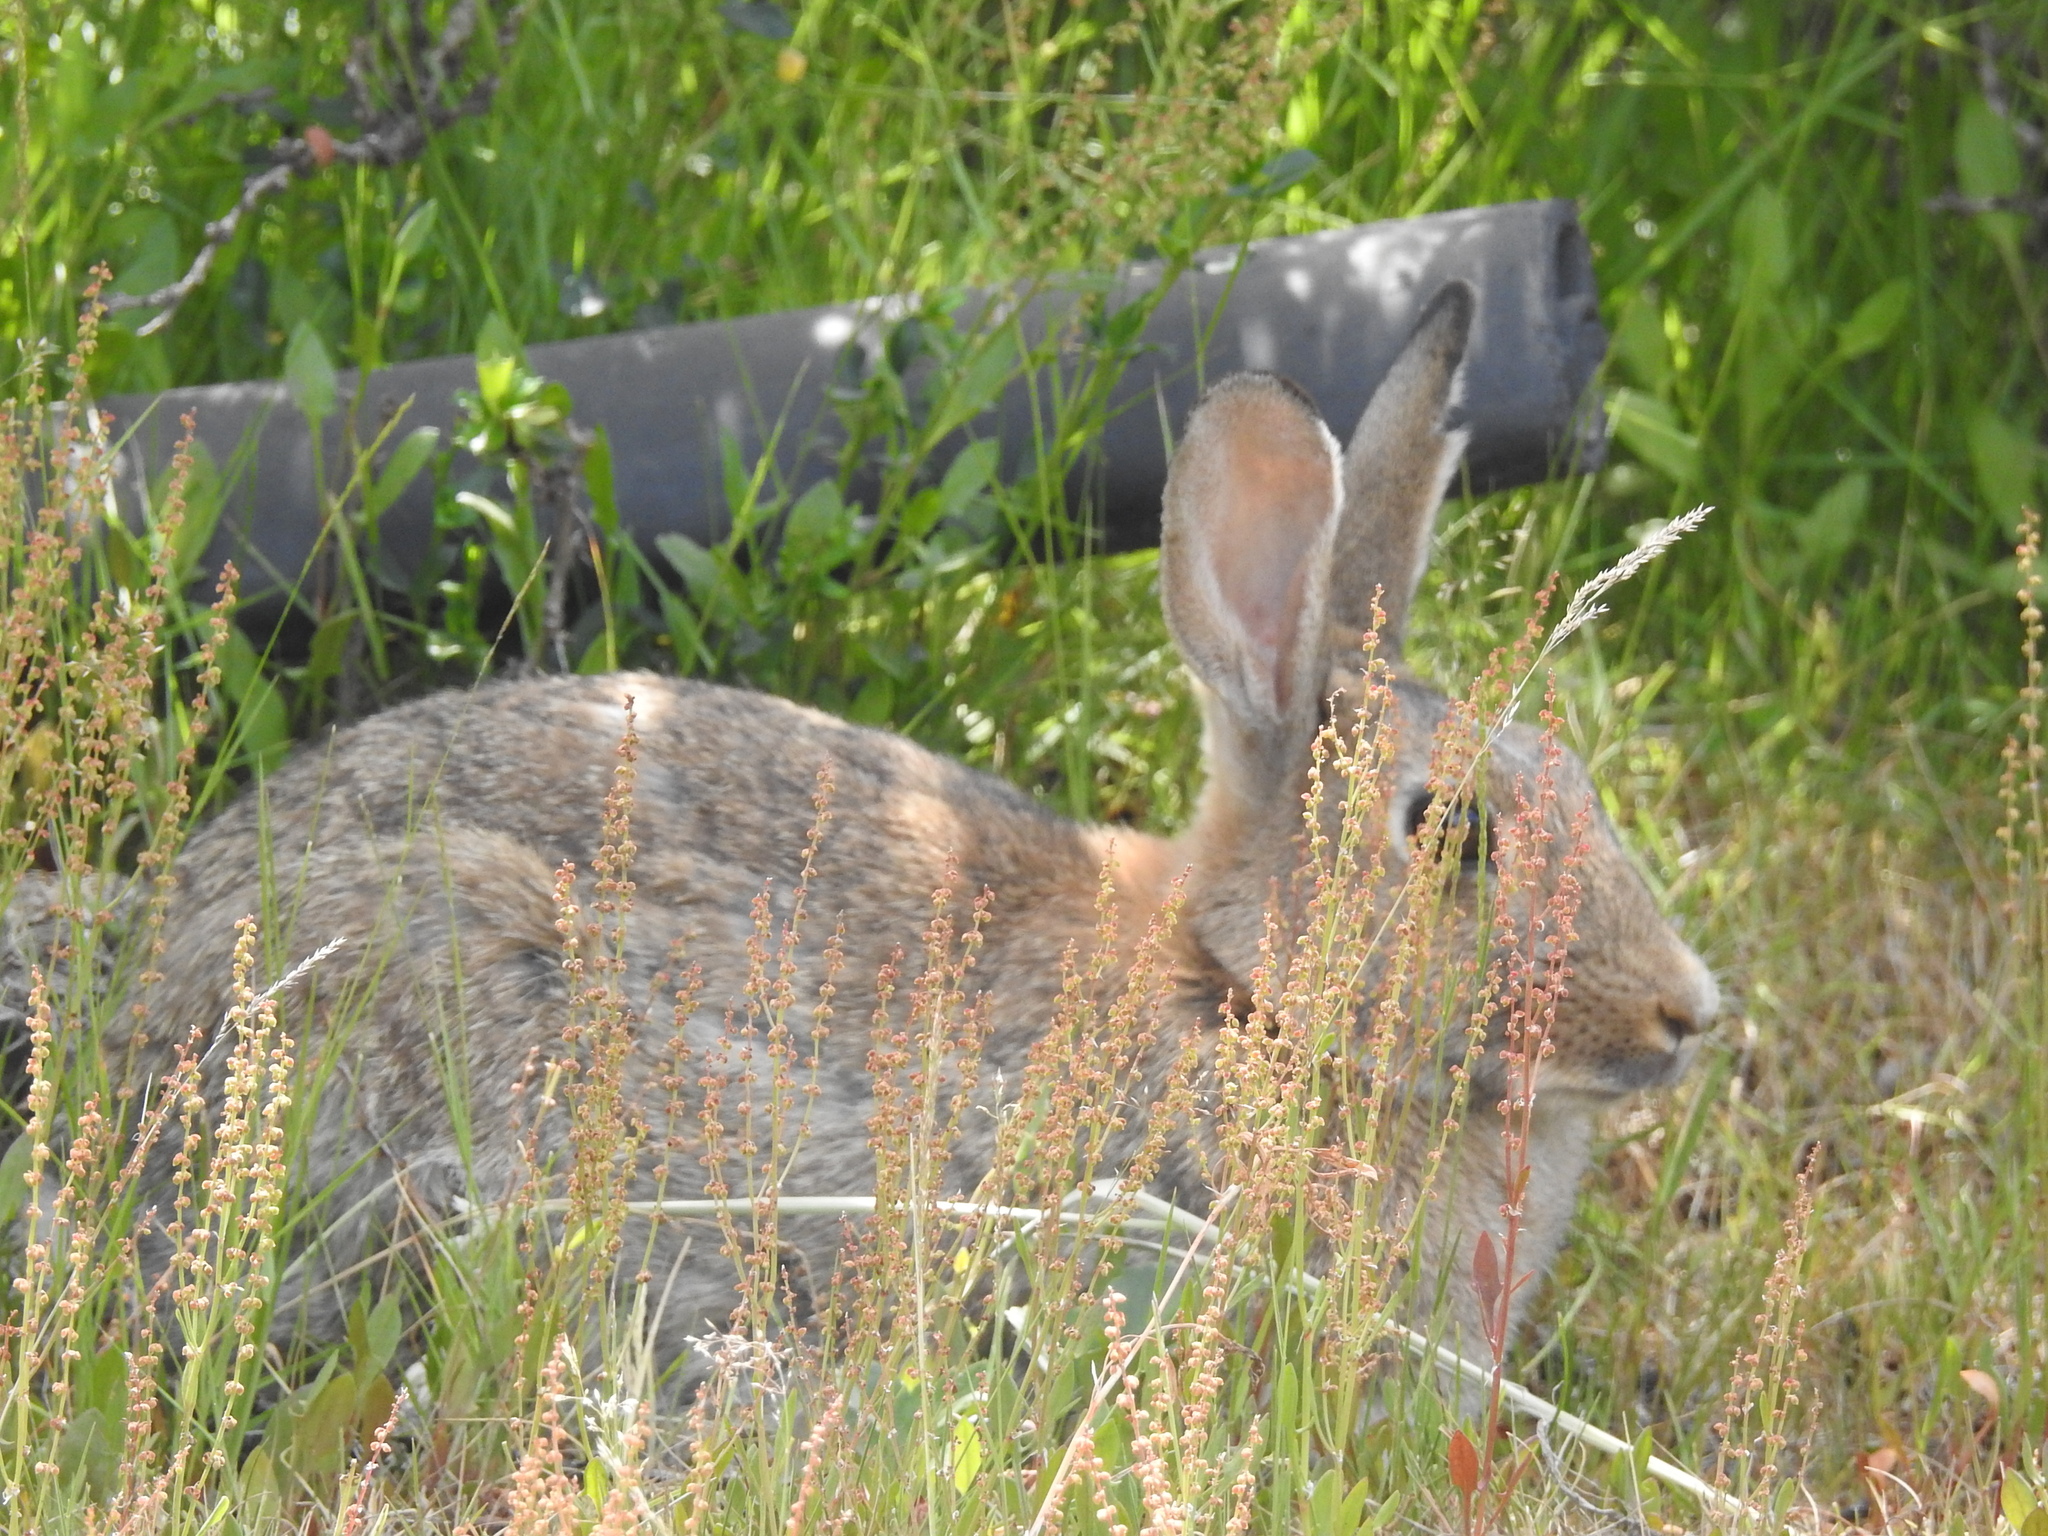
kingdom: Animalia
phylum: Chordata
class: Mammalia
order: Lagomorpha
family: Leporidae
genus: Oryctolagus
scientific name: Oryctolagus cuniculus
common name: European rabbit
